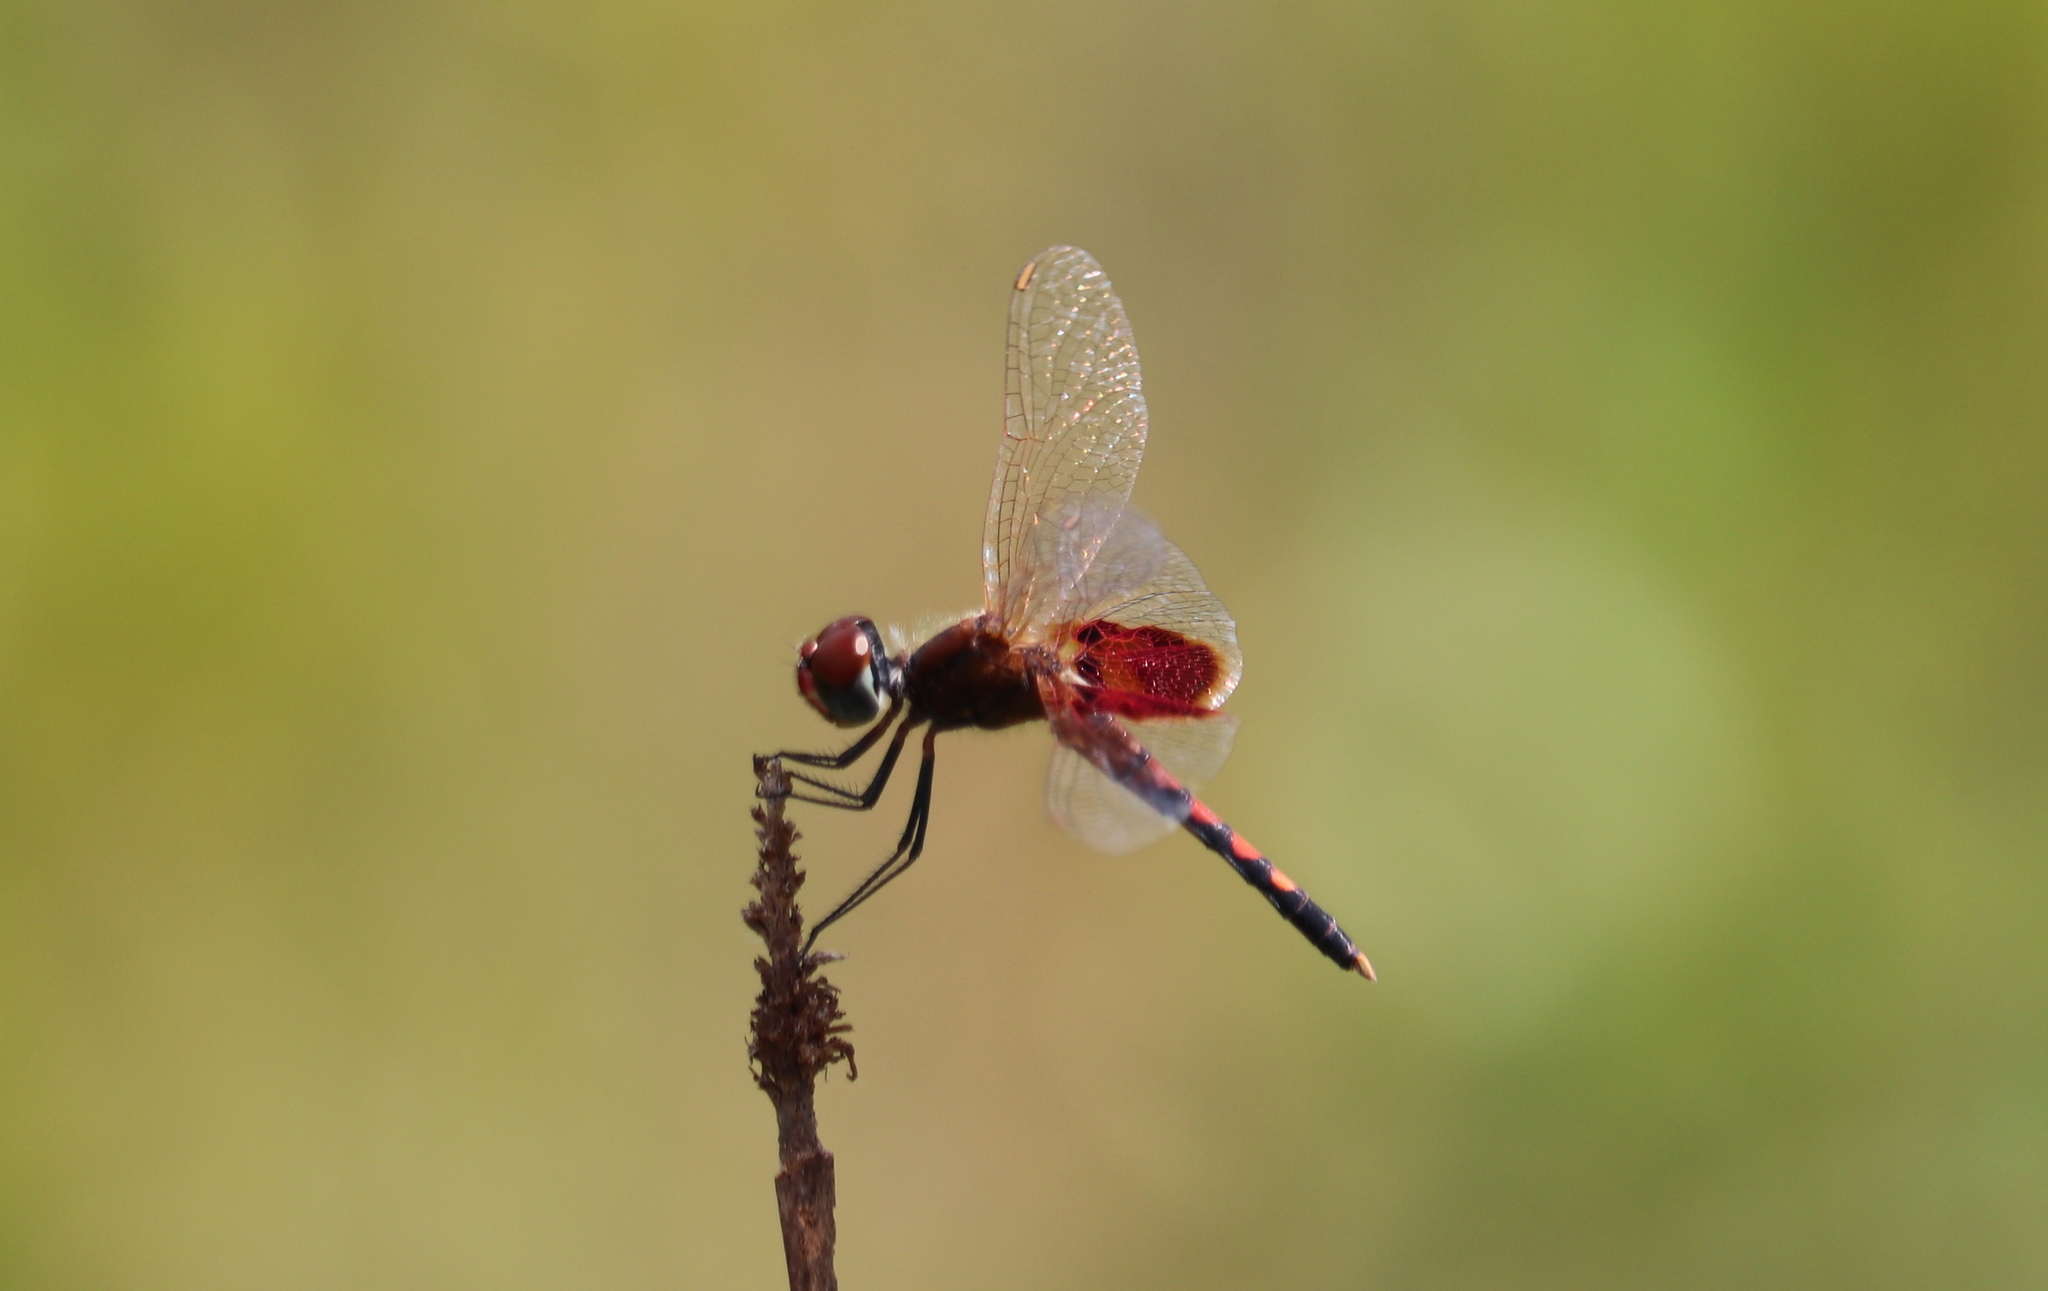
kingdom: Animalia
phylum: Arthropoda
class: Insecta
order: Odonata
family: Libellulidae
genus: Celithemis
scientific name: Celithemis amanda
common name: Amanda's pennant
